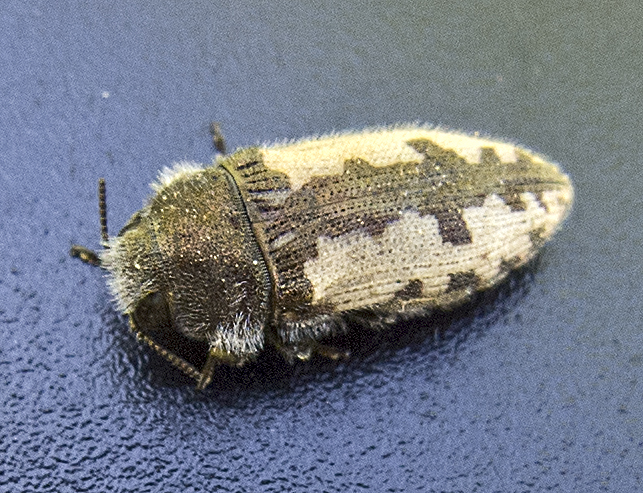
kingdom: Animalia
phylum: Arthropoda
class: Insecta
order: Coleoptera
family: Buprestidae
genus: Acmaeodera
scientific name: Acmaeodera pilosellae
